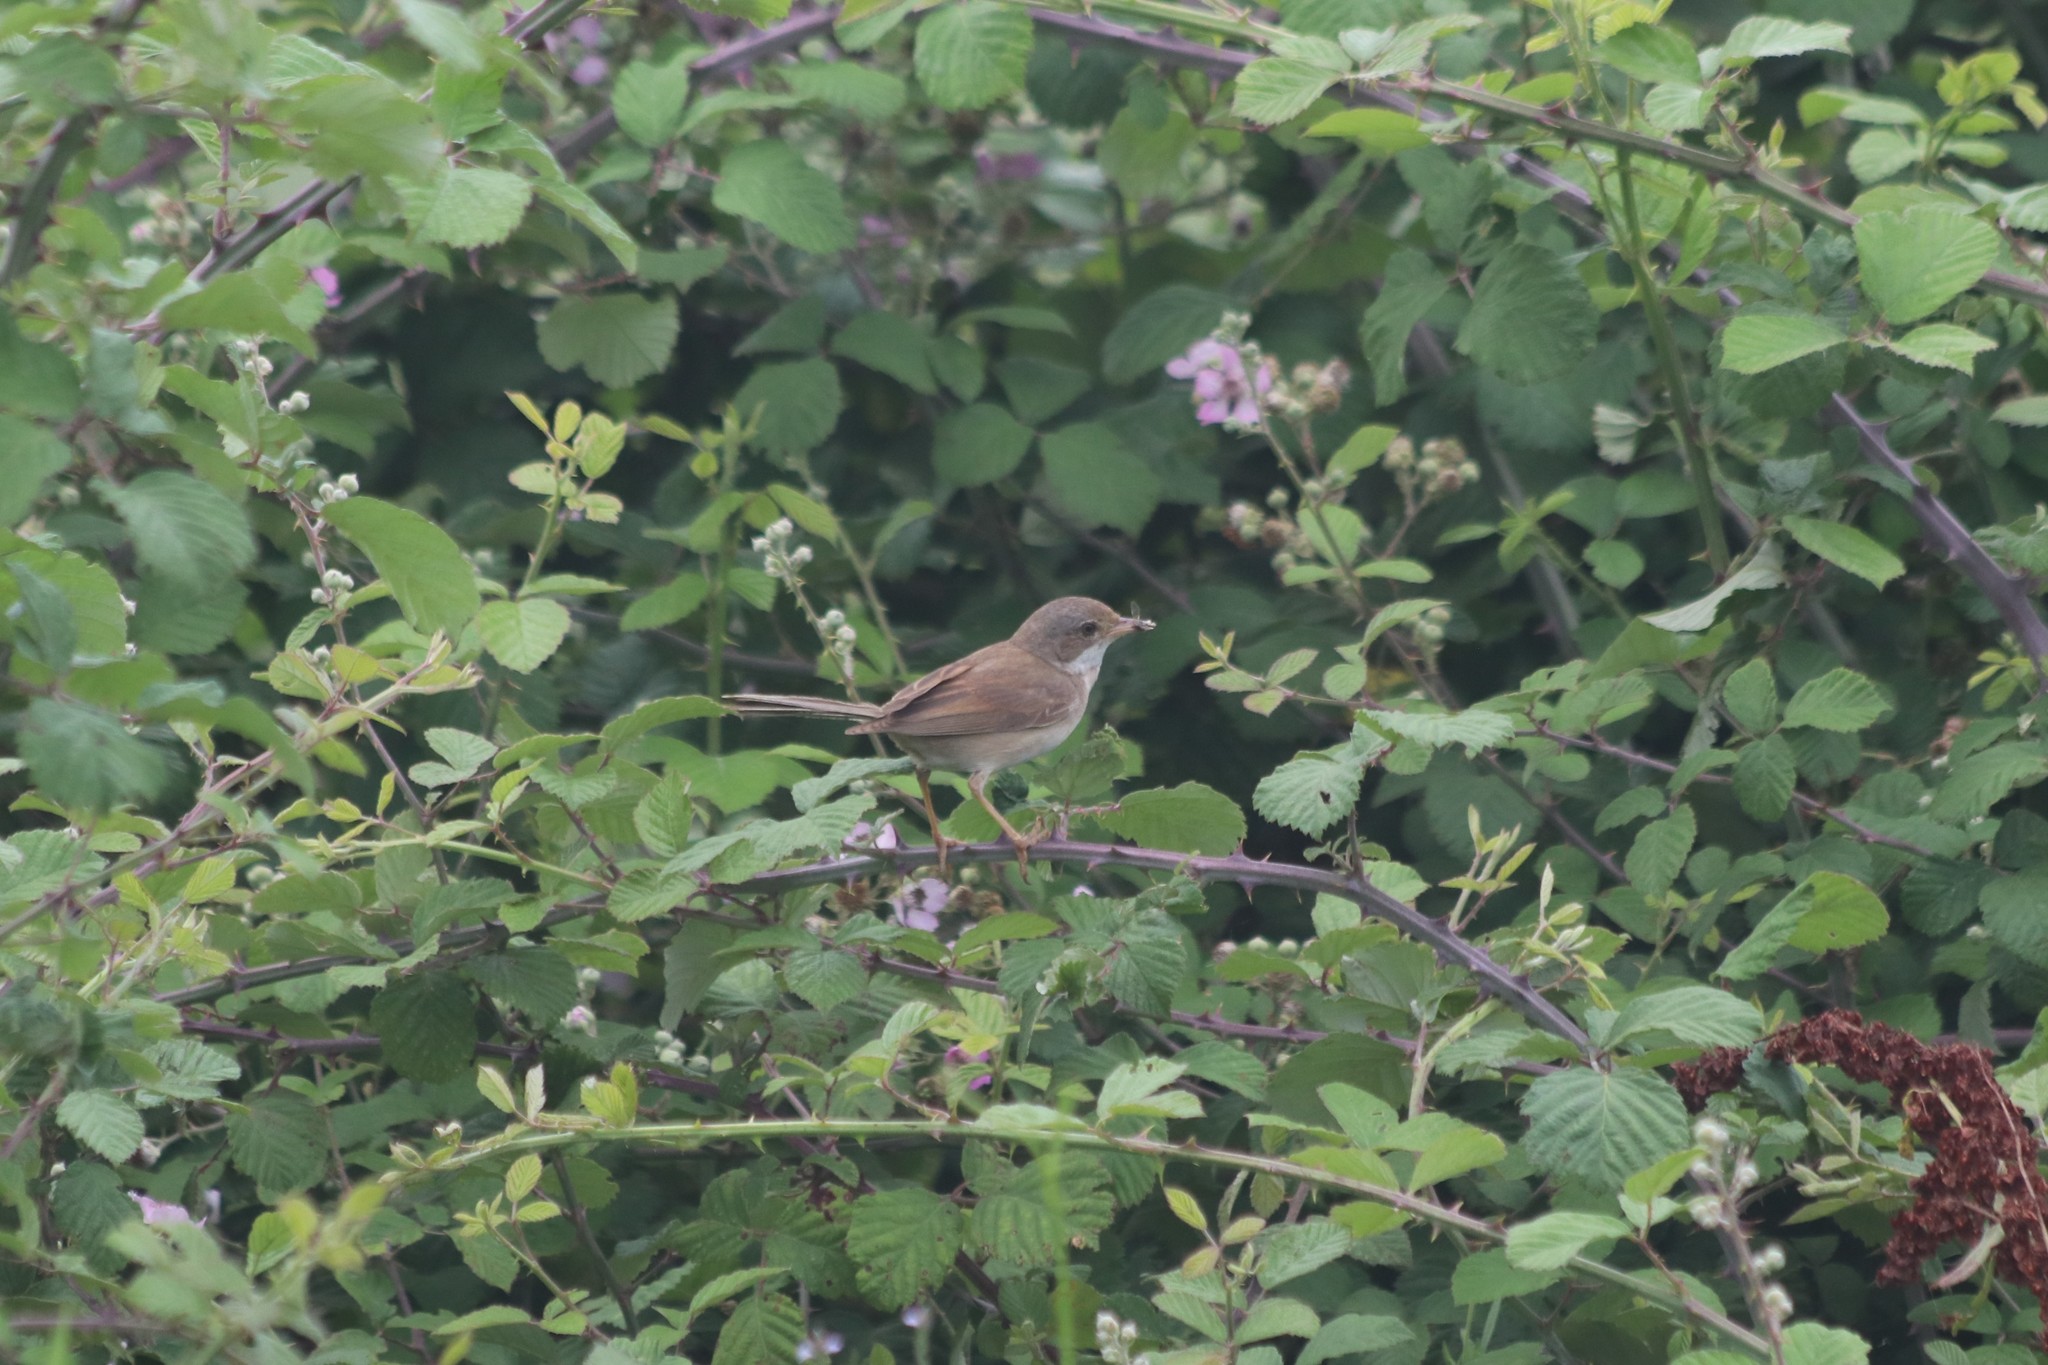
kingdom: Animalia
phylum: Chordata
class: Aves
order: Passeriformes
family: Sylviidae
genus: Sylvia
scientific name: Sylvia communis
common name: Common whitethroat
